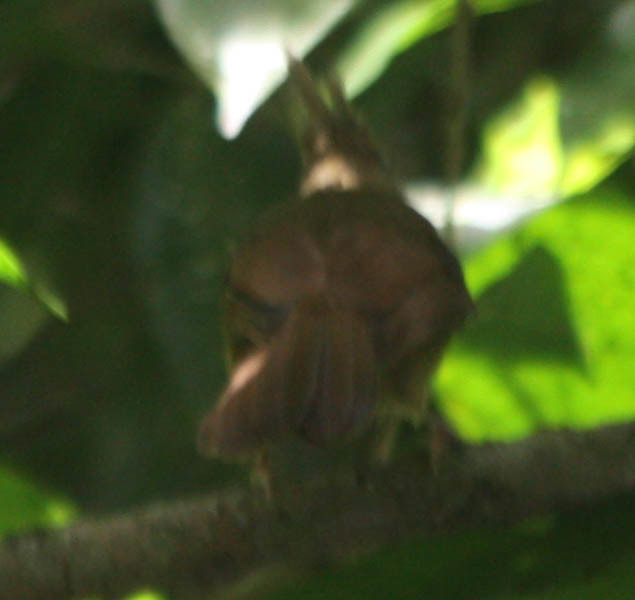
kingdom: Animalia
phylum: Chordata
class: Aves
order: Passeriformes
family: Pycnonotidae
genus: Alophoixus
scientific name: Alophoixus pallidus
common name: Puff-throated bulbul
